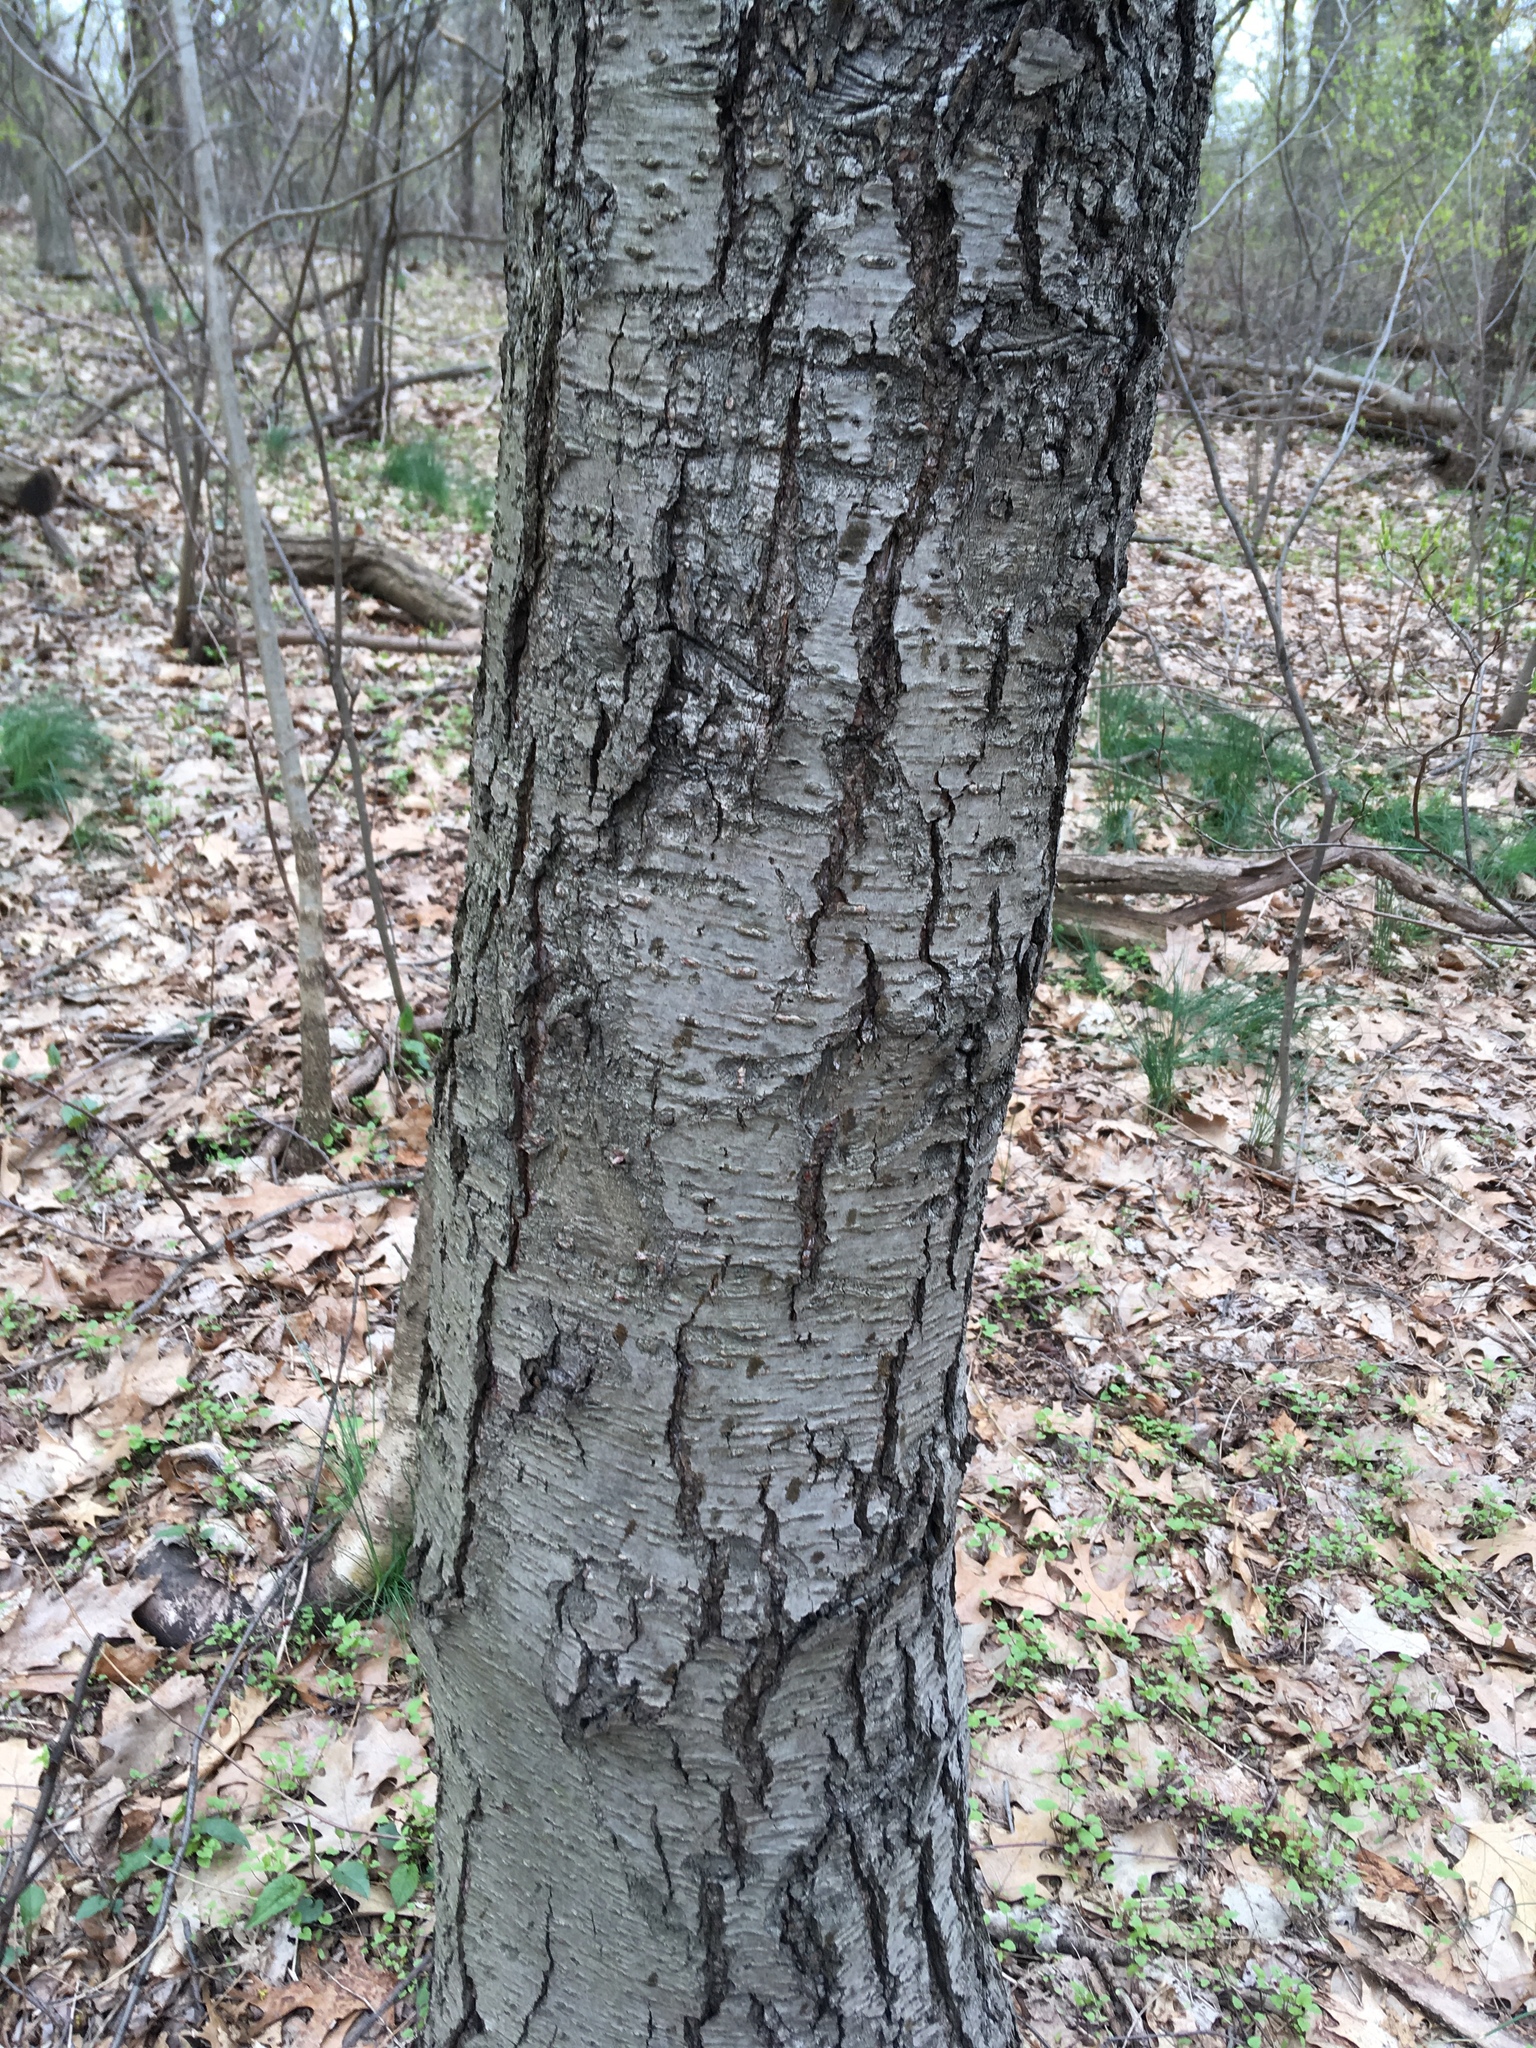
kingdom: Plantae
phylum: Tracheophyta
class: Magnoliopsida
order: Fagales
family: Betulaceae
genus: Betula
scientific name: Betula lenta
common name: Black birch
